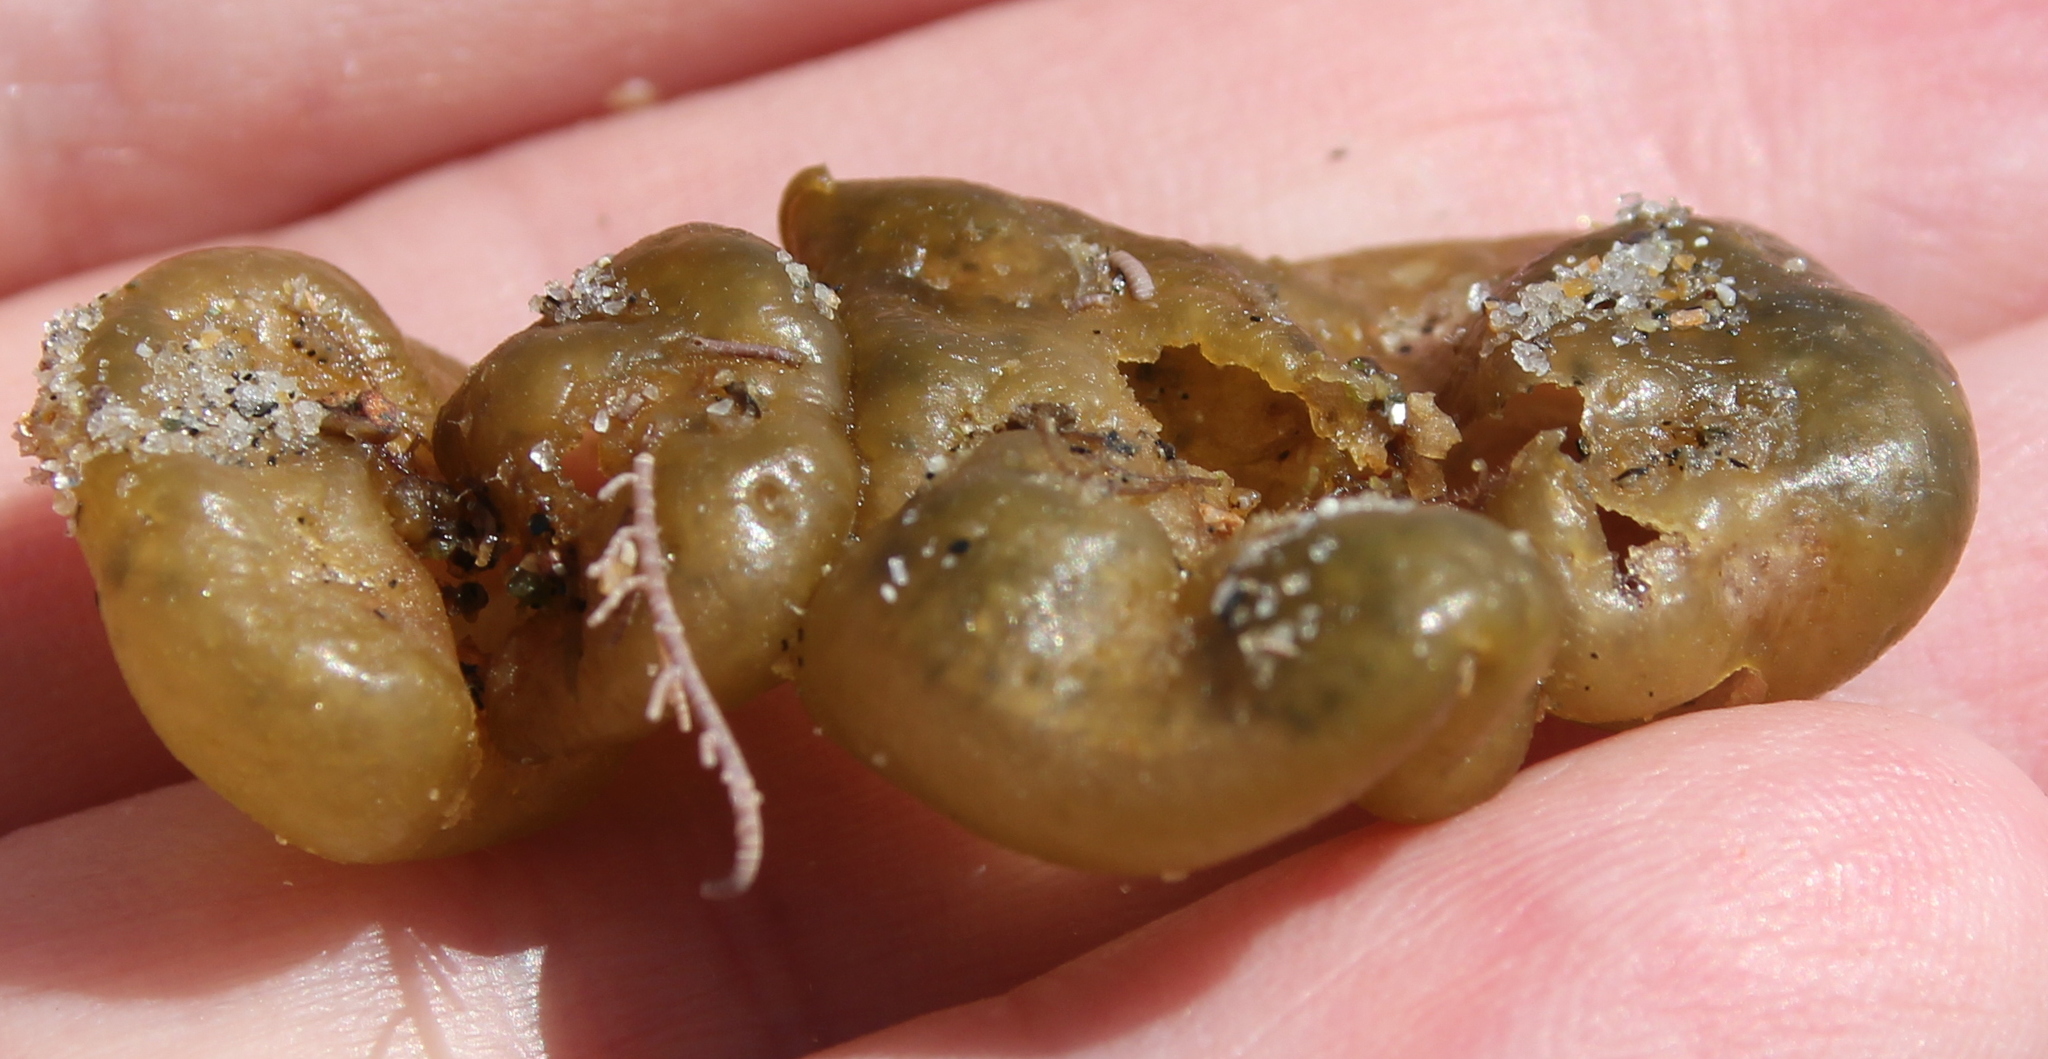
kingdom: Chromista
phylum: Ochrophyta
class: Phaeophyceae
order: Scytosiphonales
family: Scytosiphonaceae
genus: Colpomenia
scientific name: Colpomenia sinuosa
